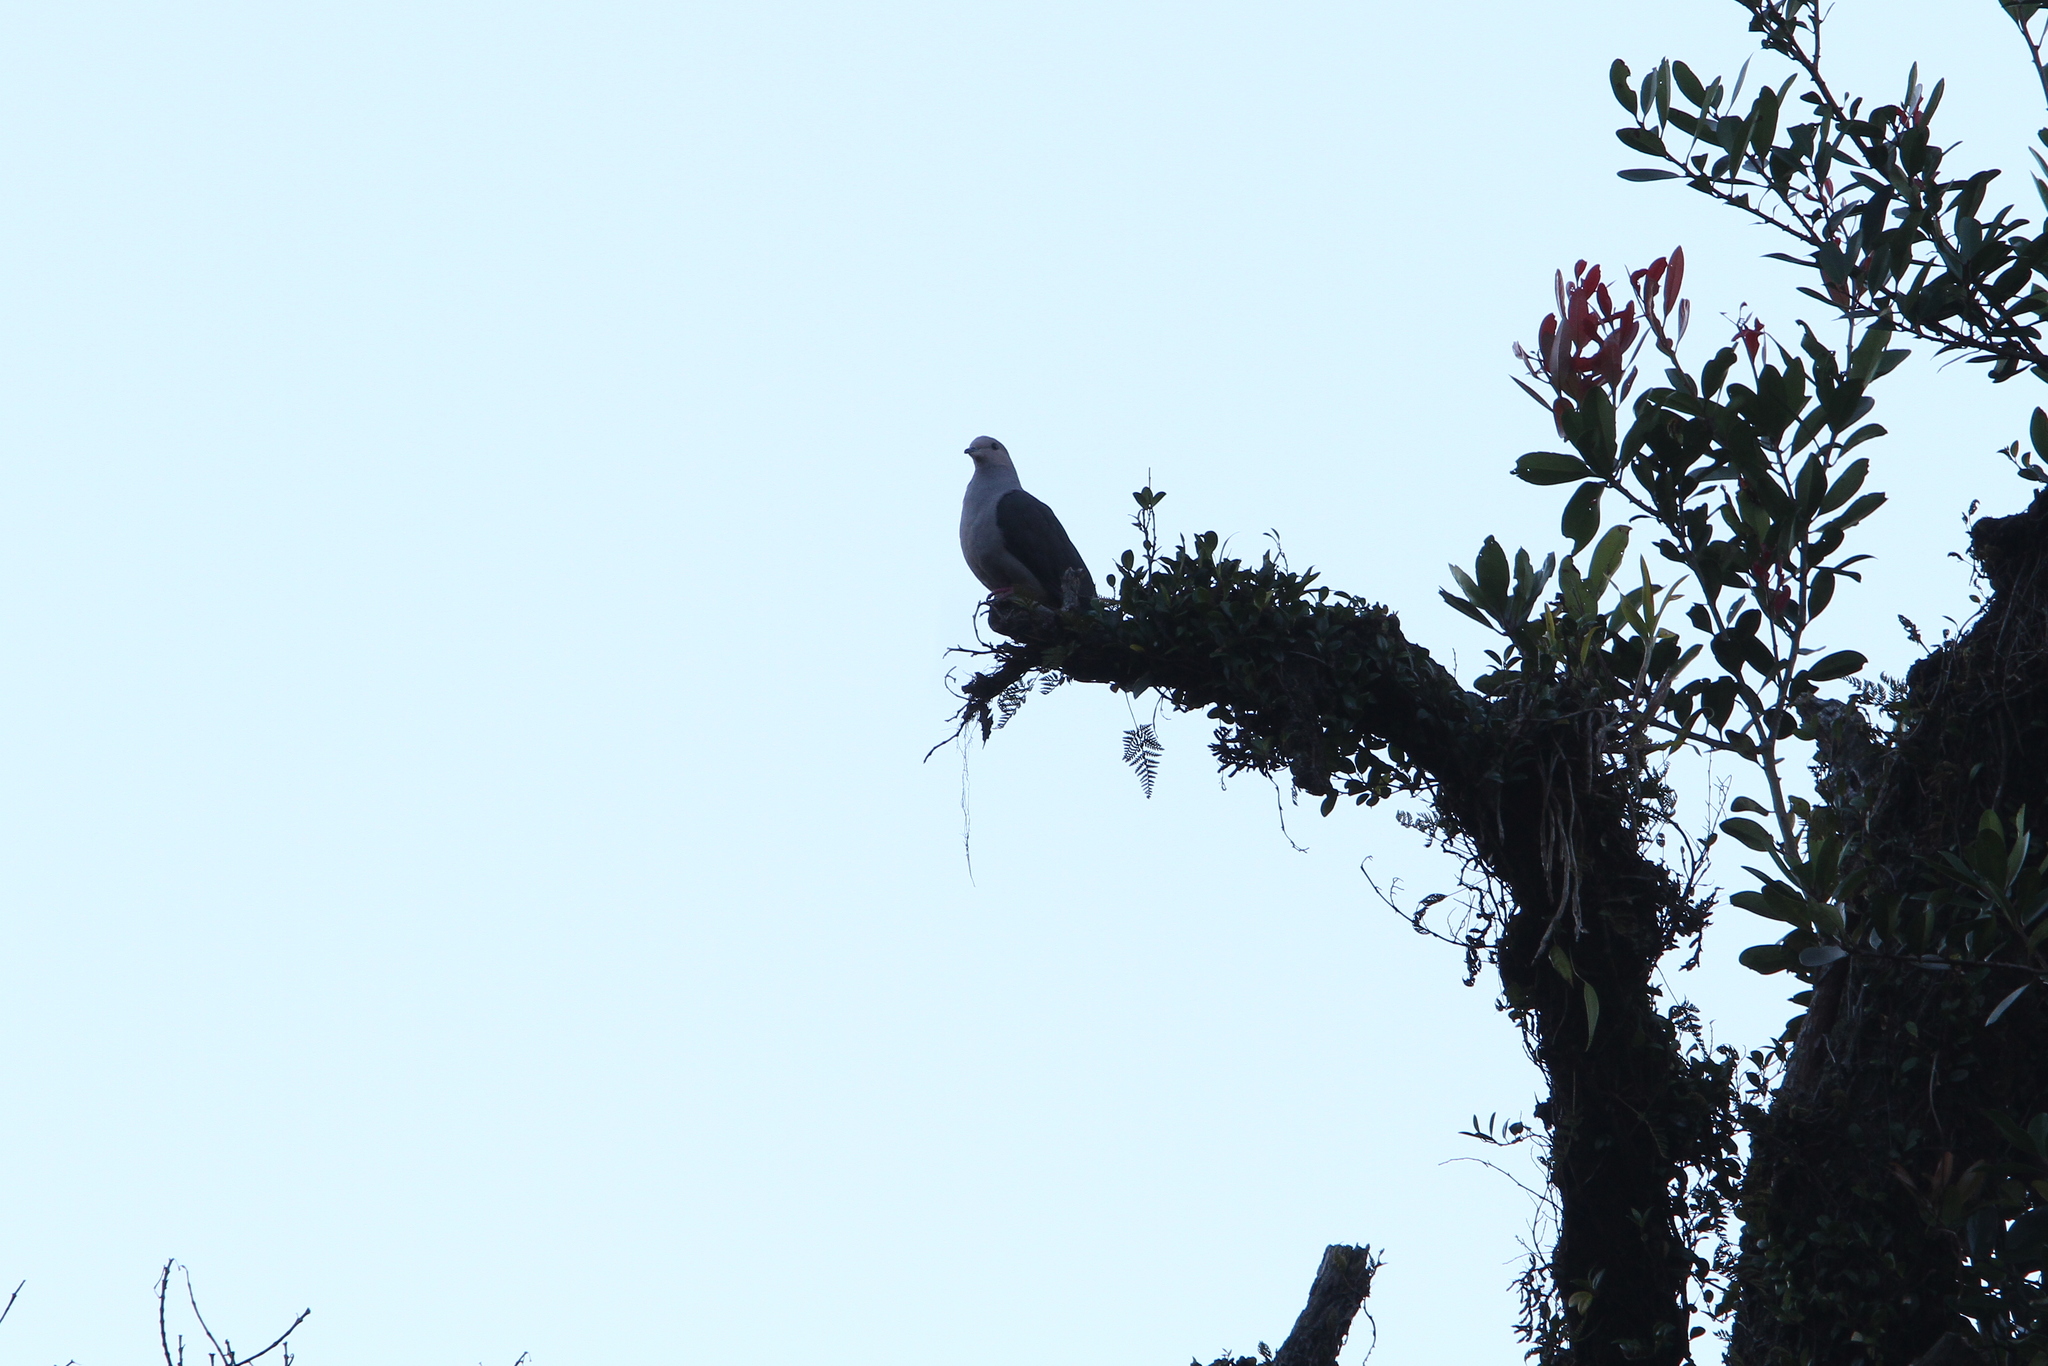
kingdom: Animalia
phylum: Chordata
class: Aves
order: Columbiformes
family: Columbidae
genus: Ducula
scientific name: Ducula lacernulata
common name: Dark-backed imperial pigeon
